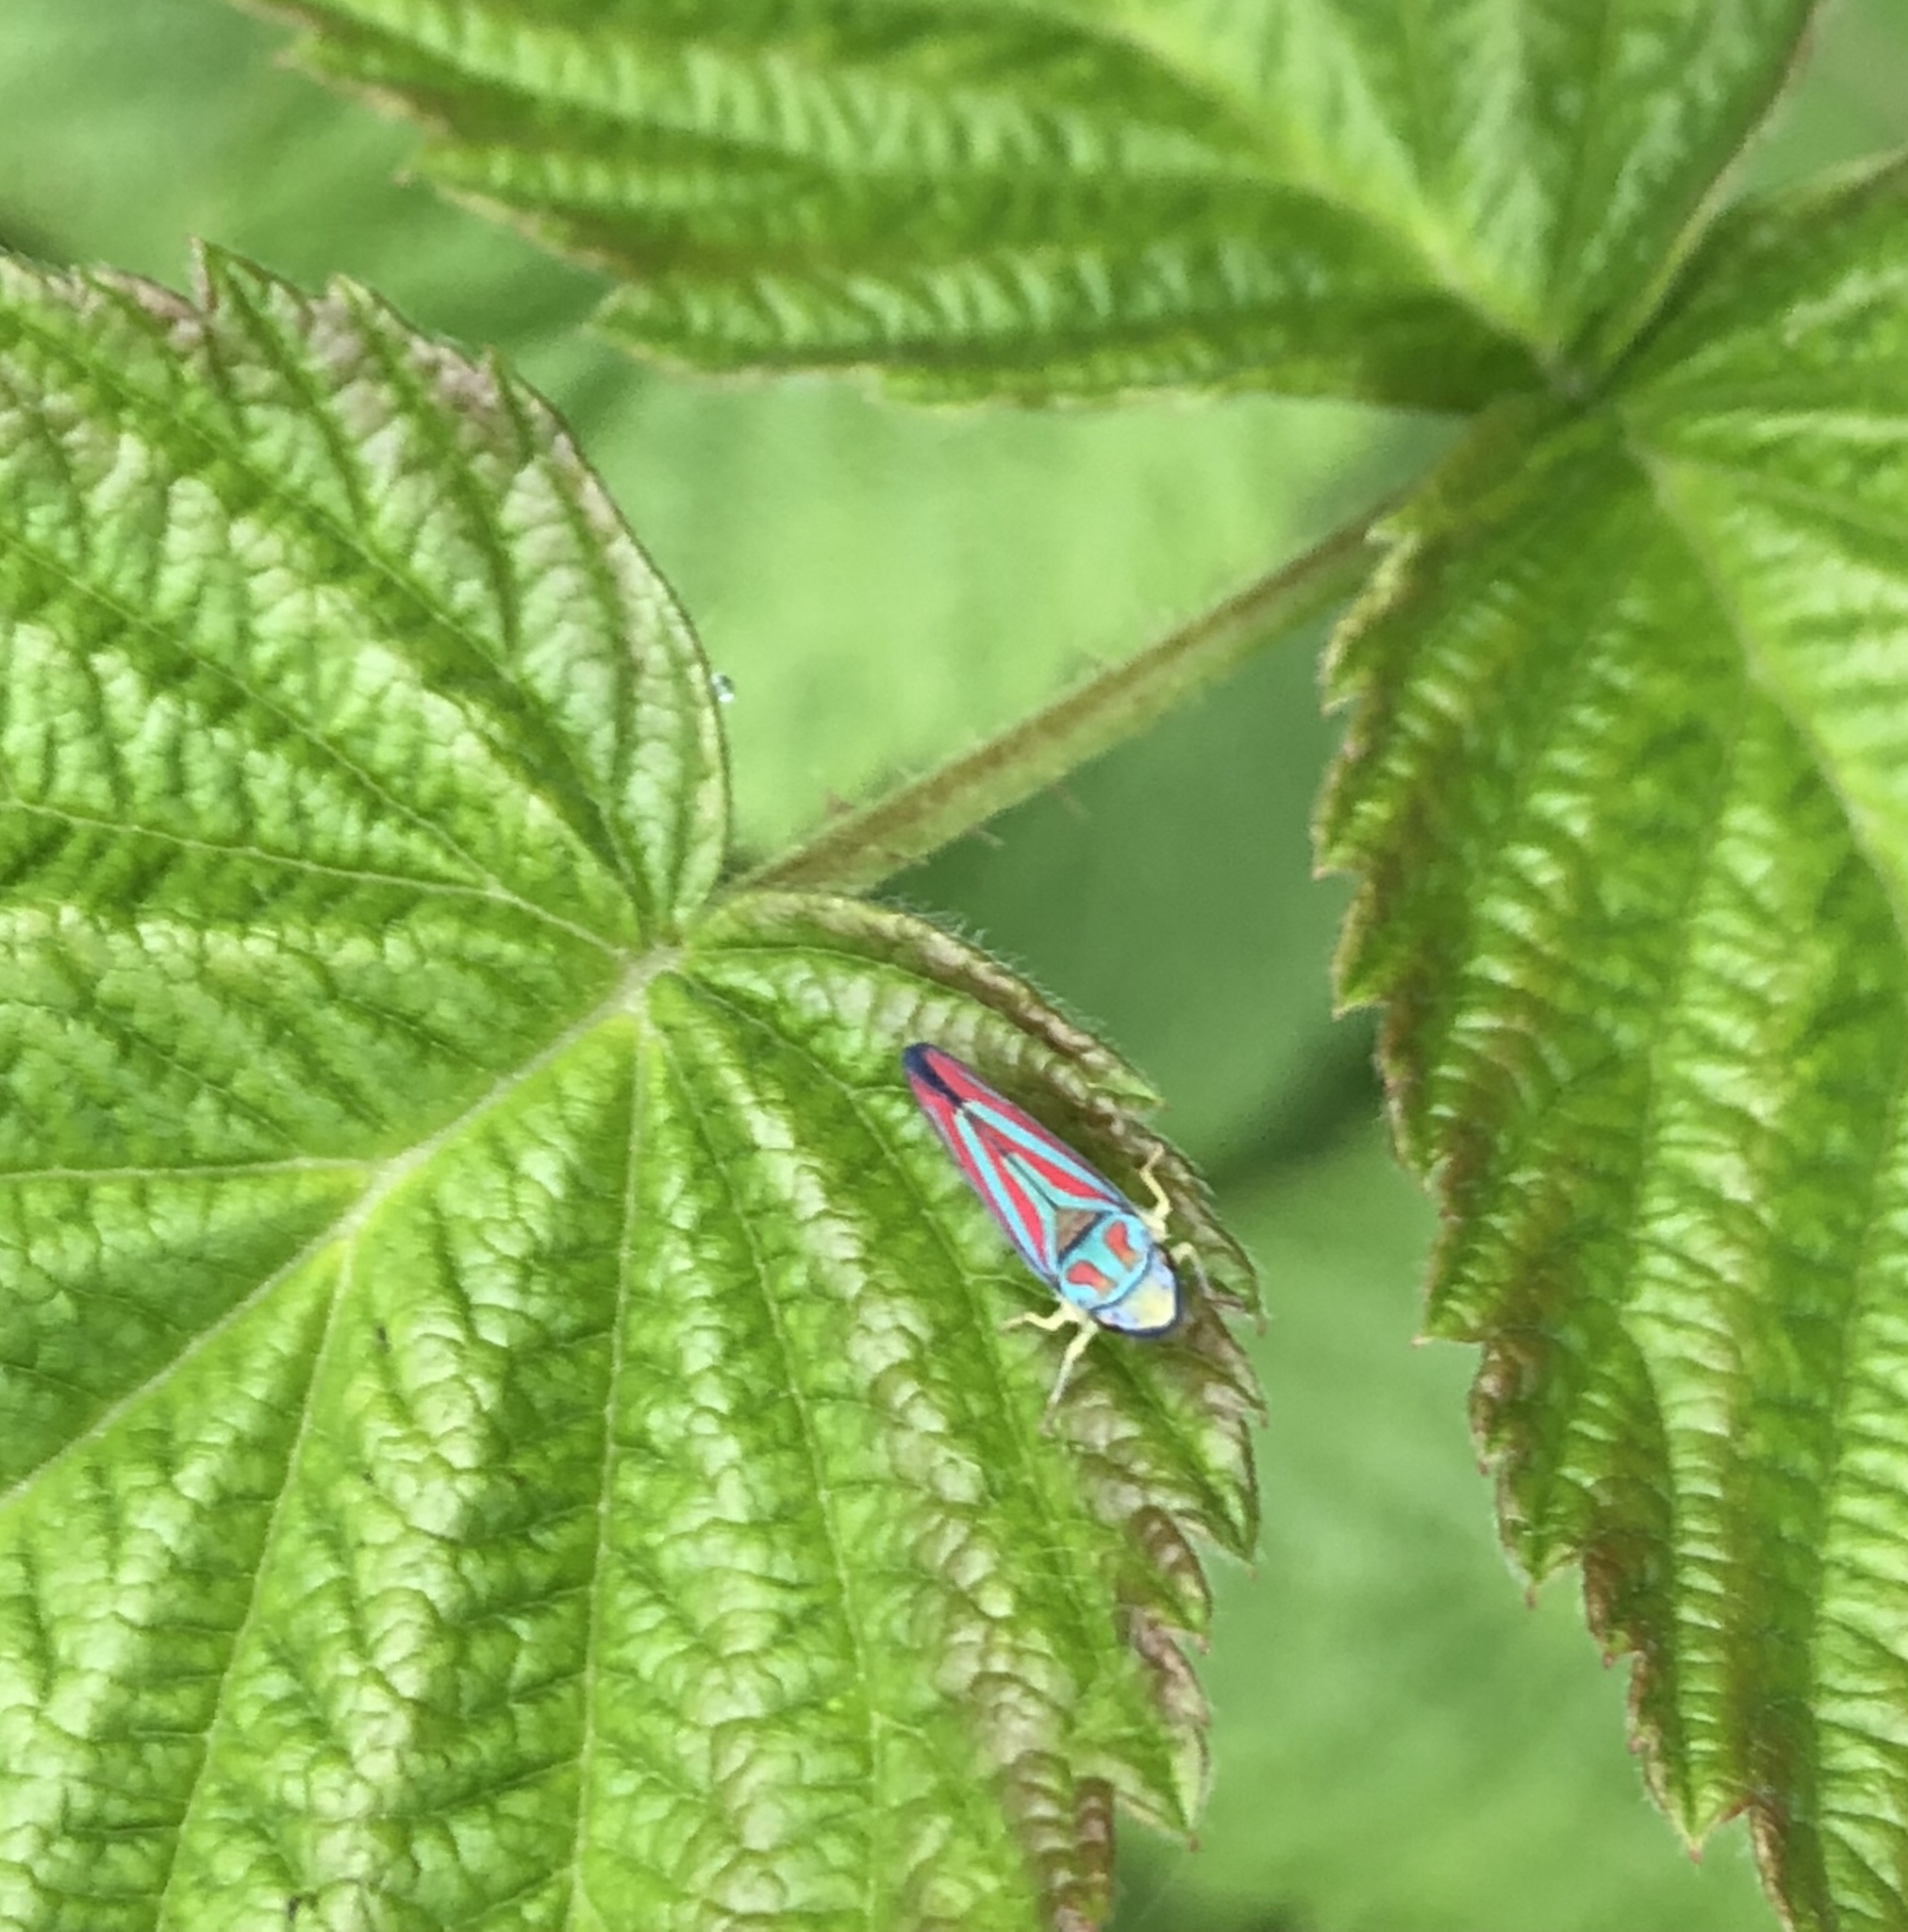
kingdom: Animalia
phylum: Arthropoda
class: Insecta
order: Hemiptera
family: Cicadellidae
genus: Graphocephala
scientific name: Graphocephala coccinea
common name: Candy-striped leafhopper
